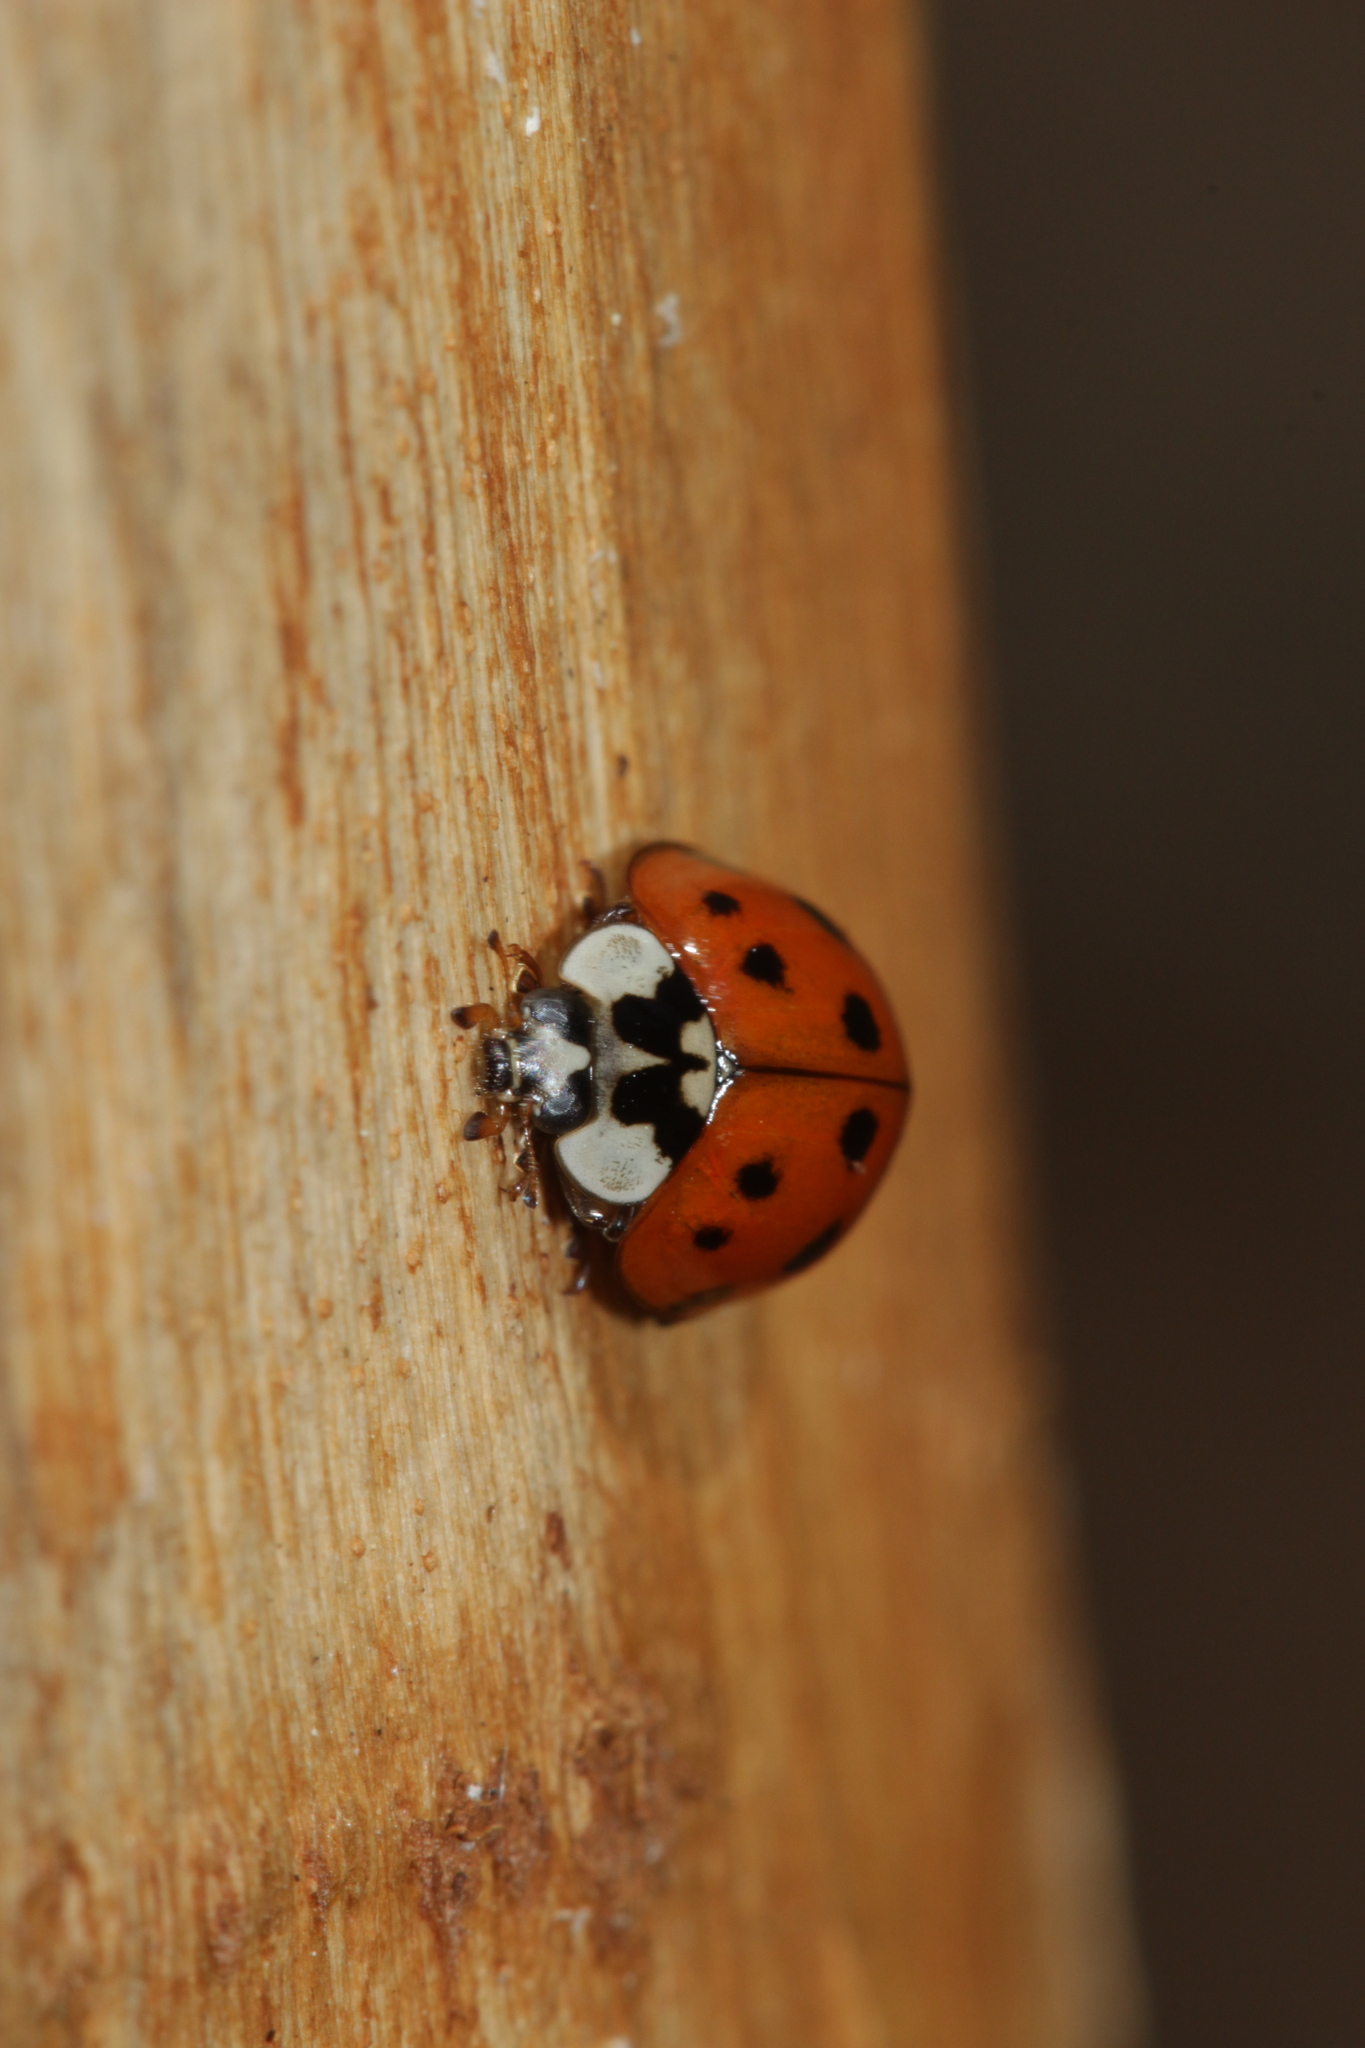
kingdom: Animalia
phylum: Arthropoda
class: Insecta
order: Coleoptera
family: Coccinellidae
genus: Harmonia
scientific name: Harmonia axyridis
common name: Harlequin ladybird
